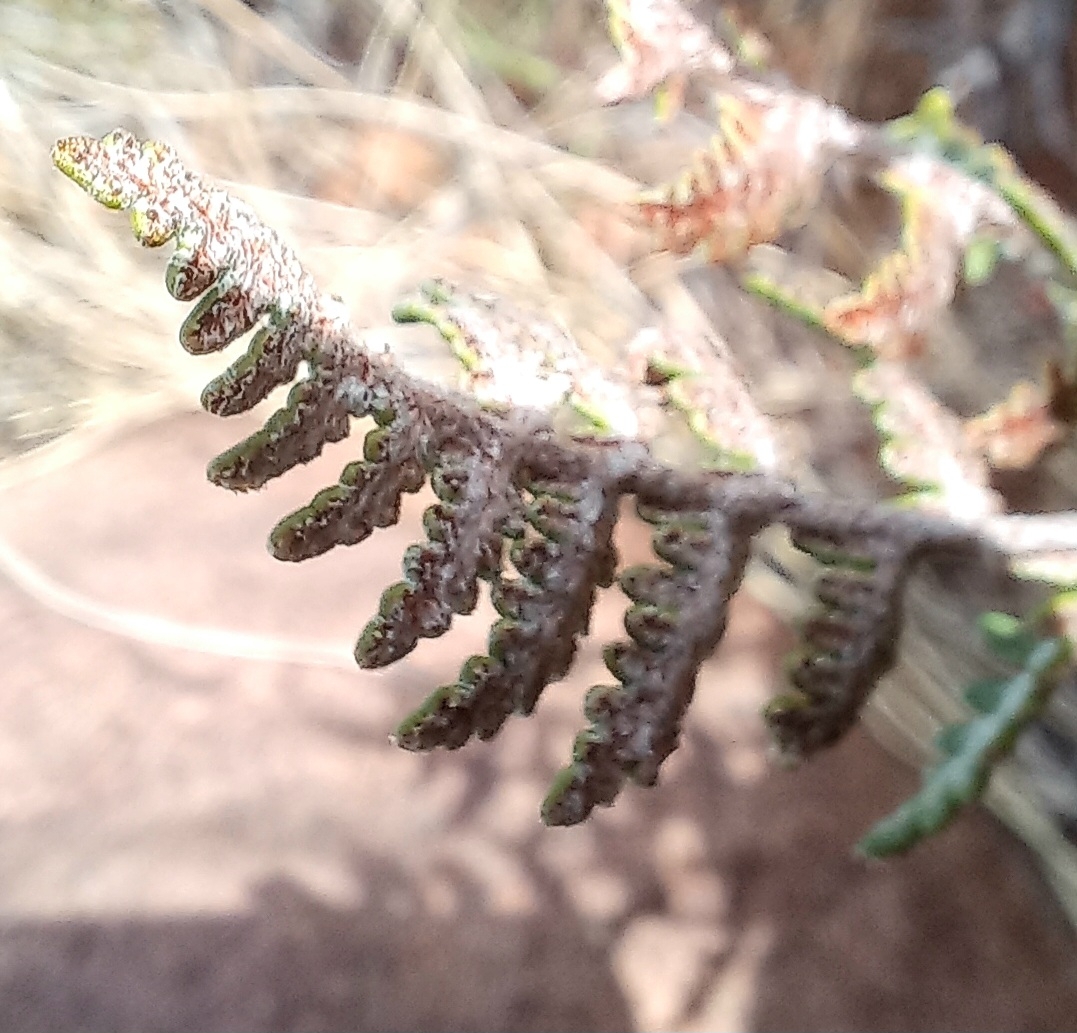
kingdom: Plantae
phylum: Tracheophyta
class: Polypodiopsida
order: Polypodiales
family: Pteridaceae
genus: Cheilanthes
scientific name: Cheilanthes eckloniana
